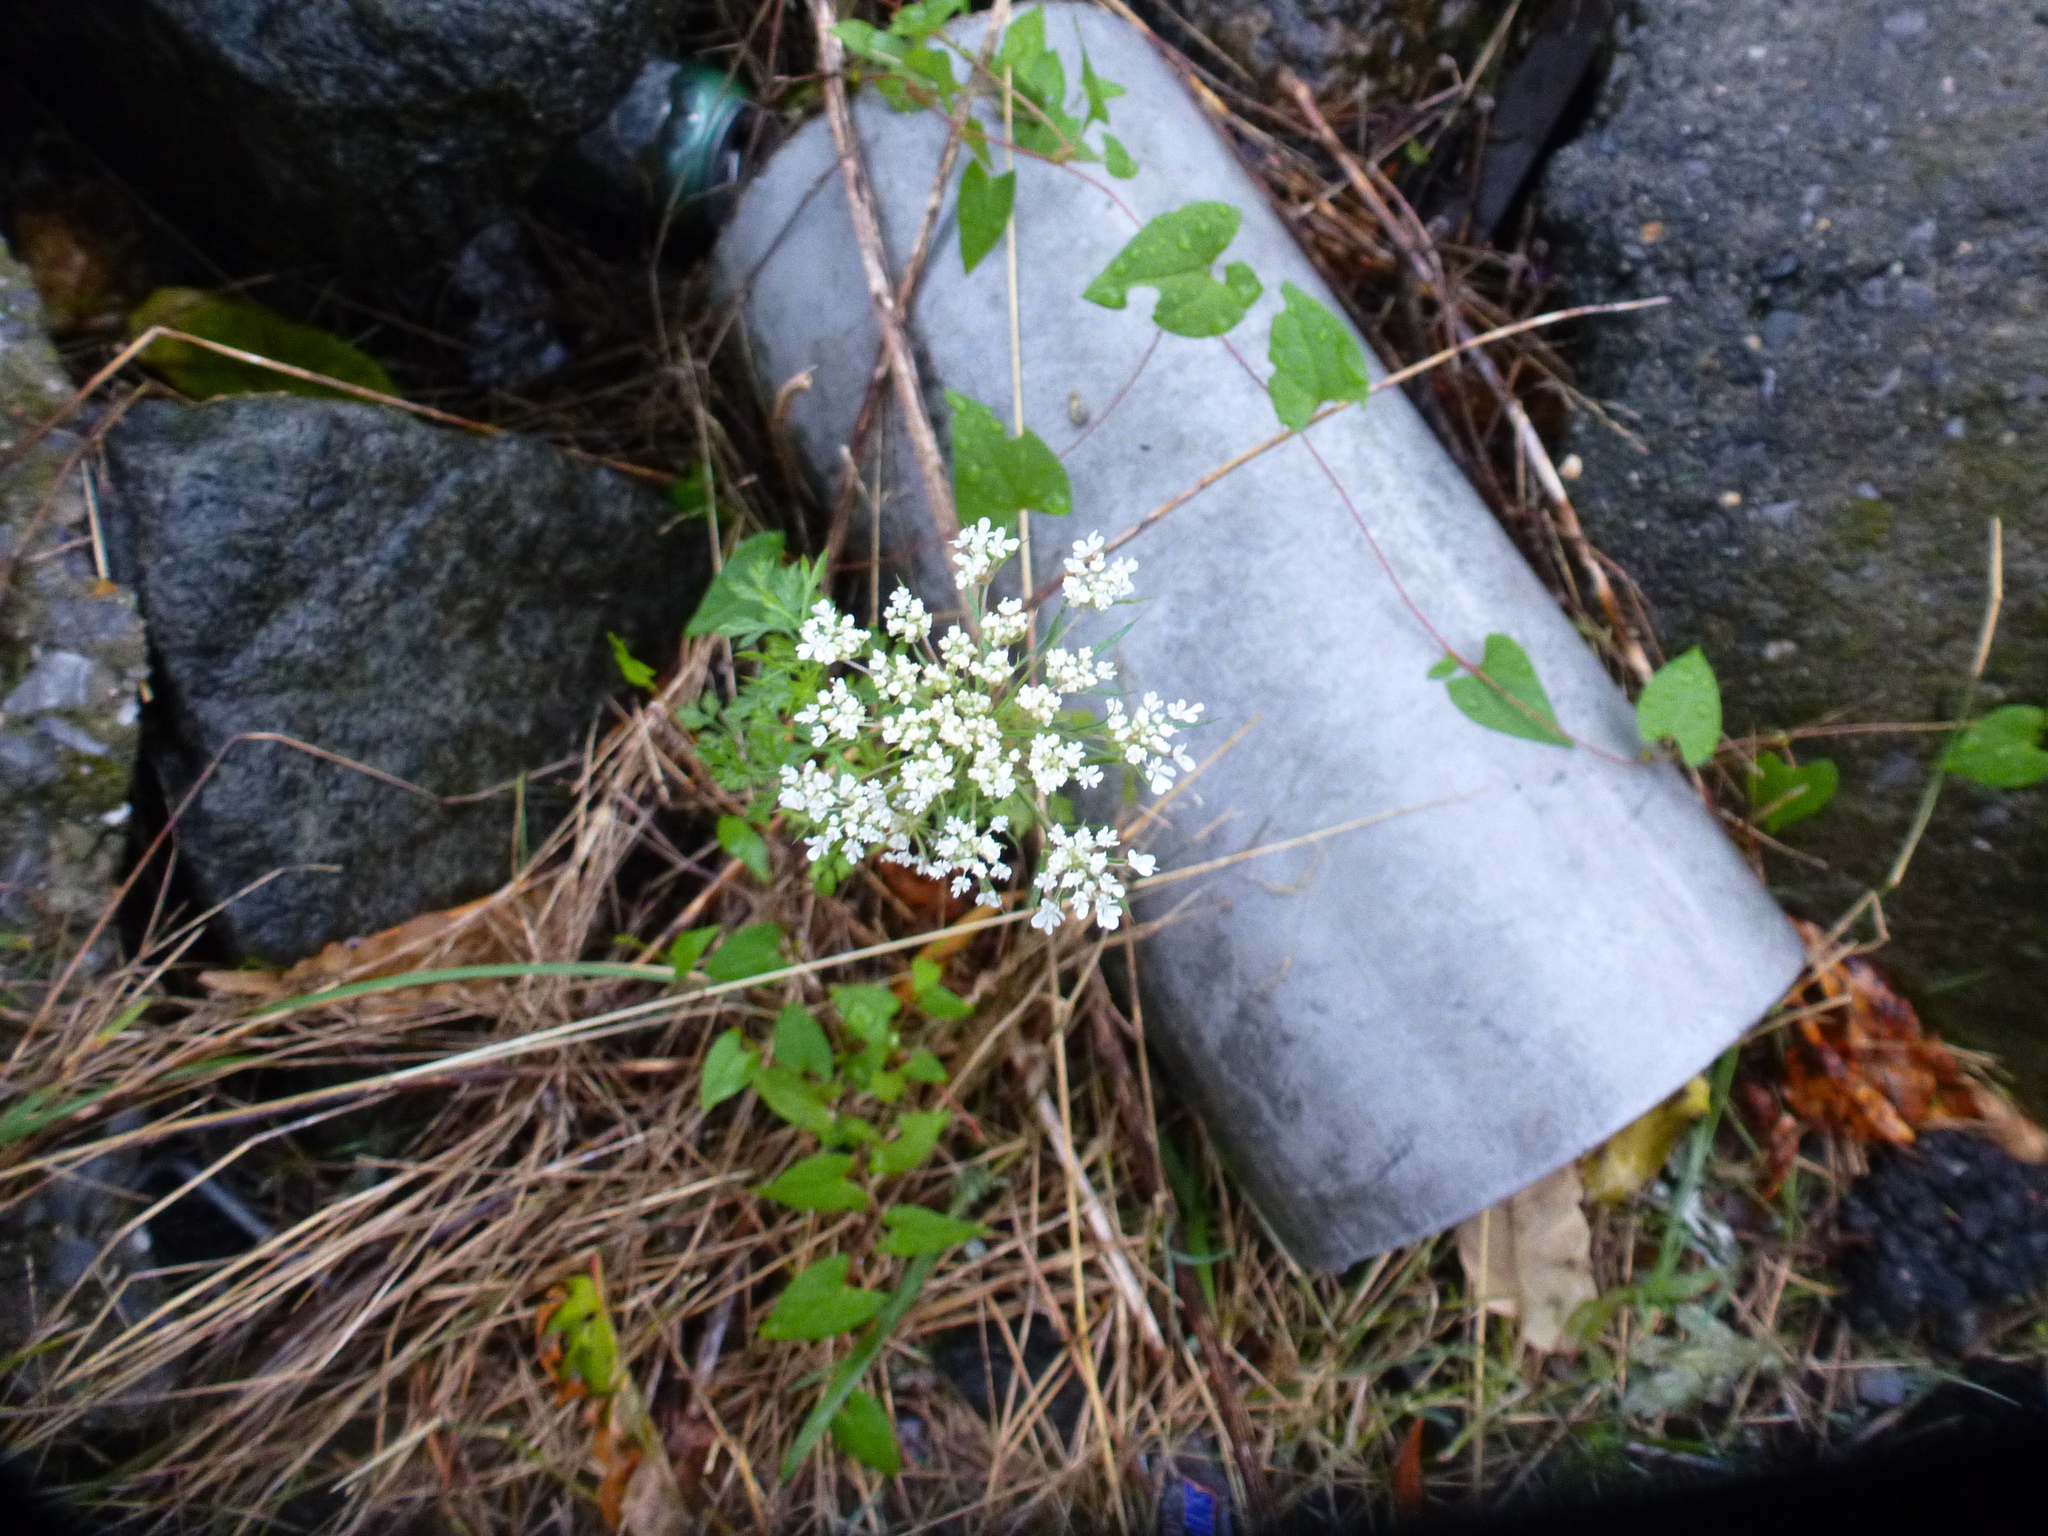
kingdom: Plantae
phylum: Tracheophyta
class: Magnoliopsida
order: Apiales
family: Apiaceae
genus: Daucus
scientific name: Daucus carota
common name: Wild carrot
